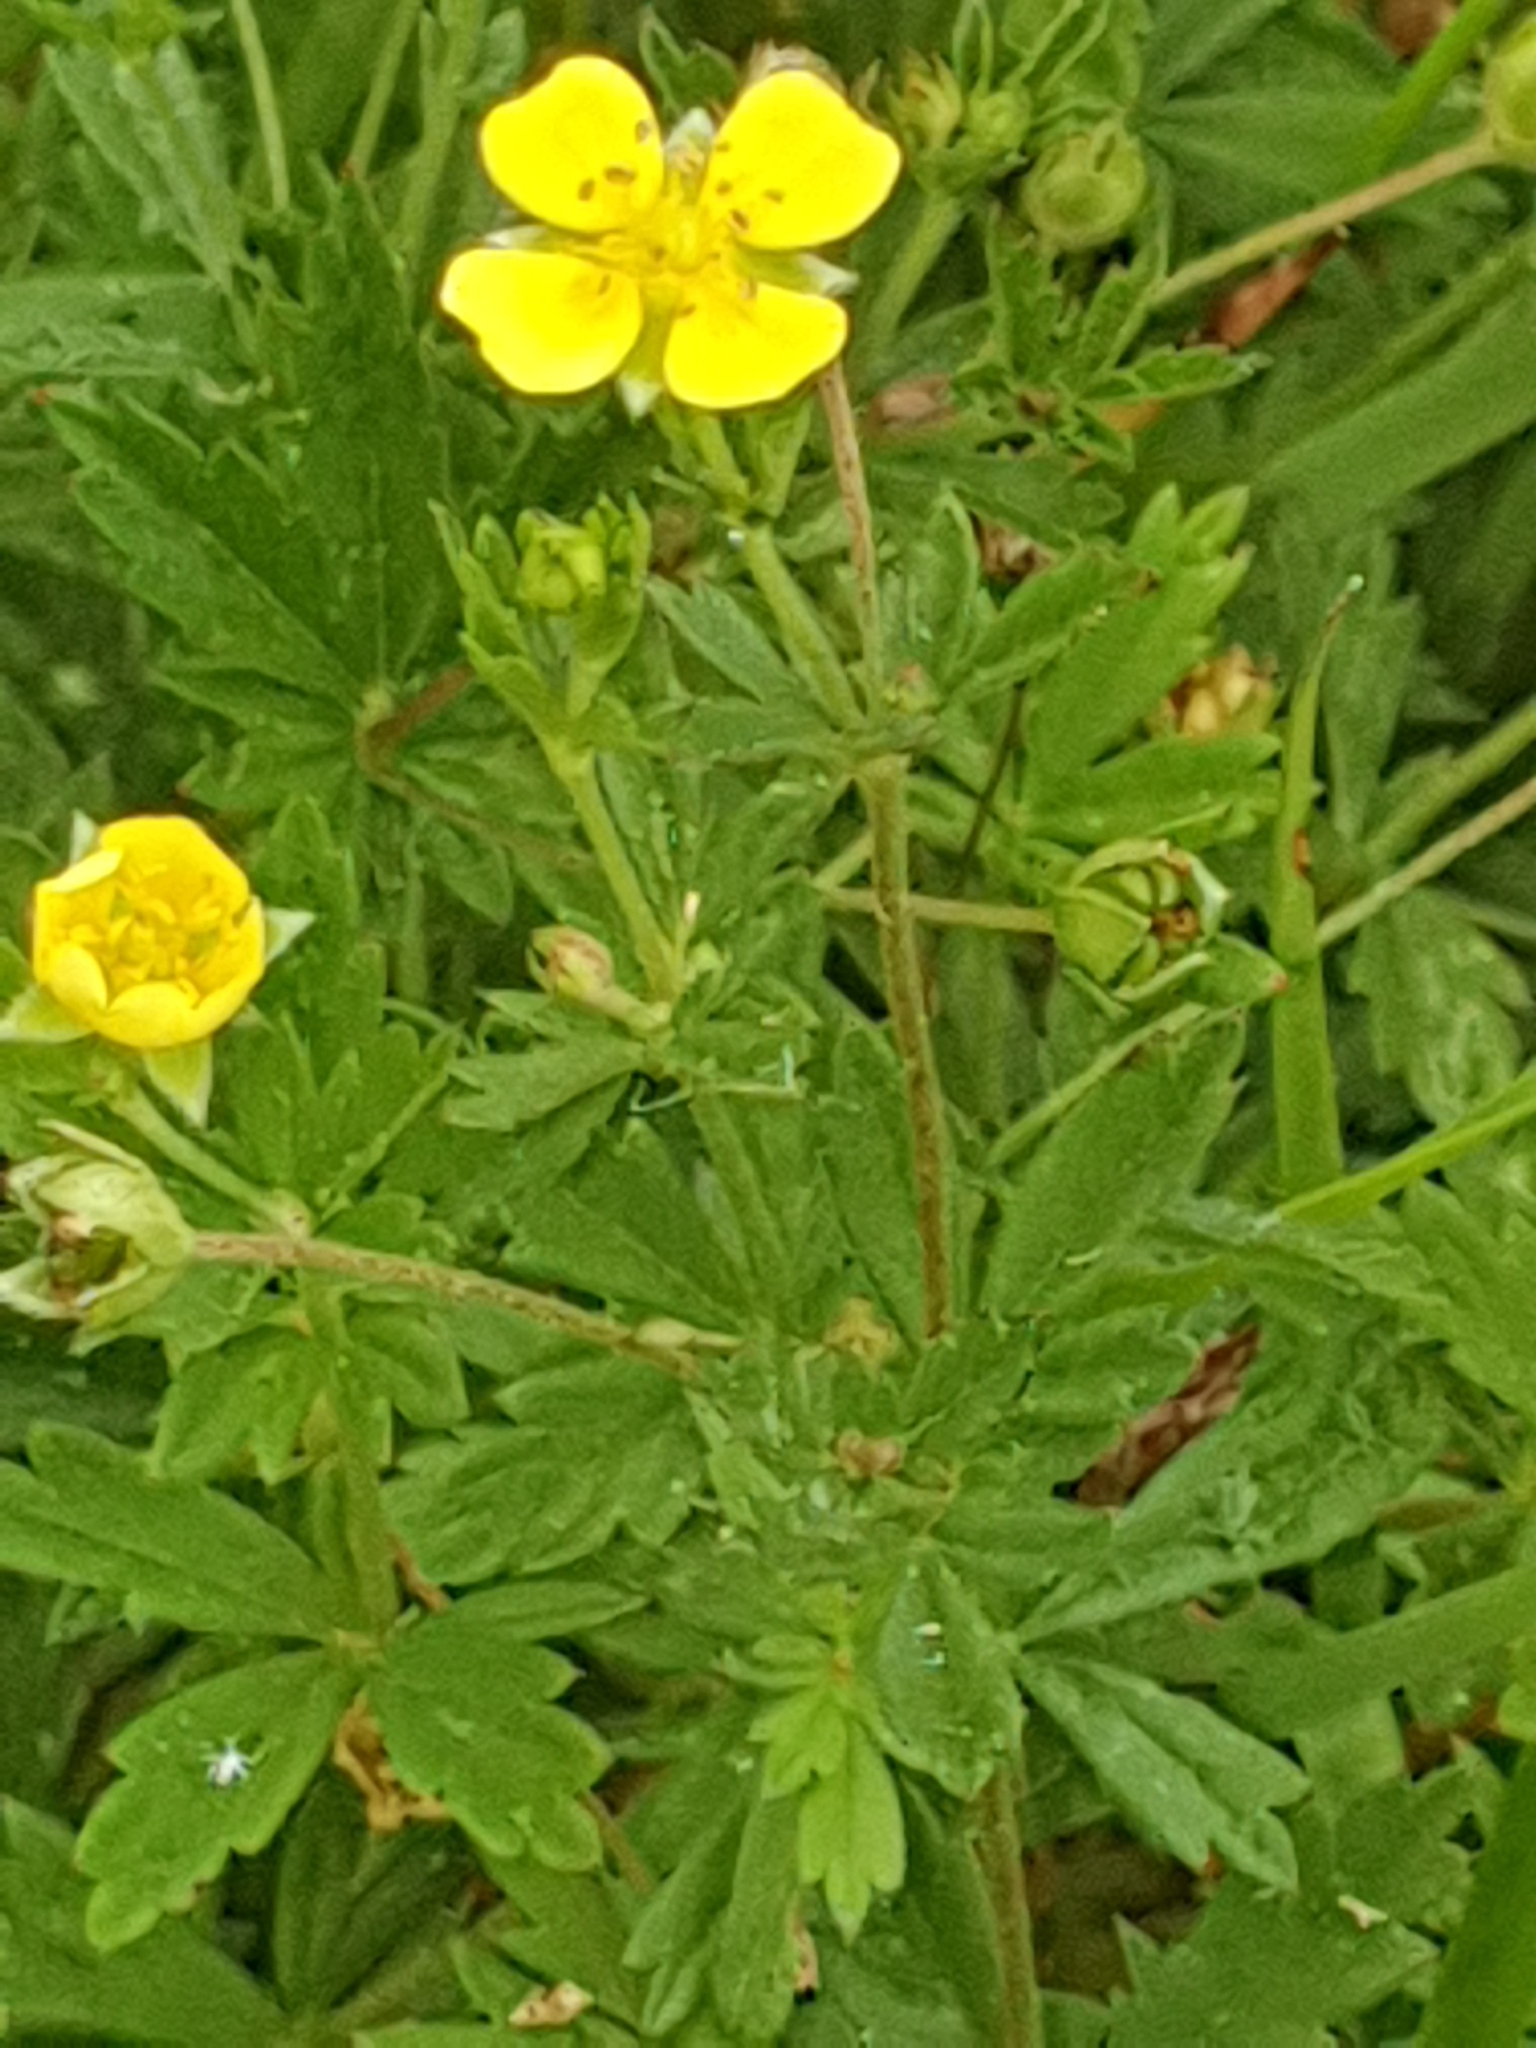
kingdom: Plantae
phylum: Tracheophyta
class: Magnoliopsida
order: Rosales
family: Rosaceae
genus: Potentilla
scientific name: Potentilla erecta
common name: Tormentil
